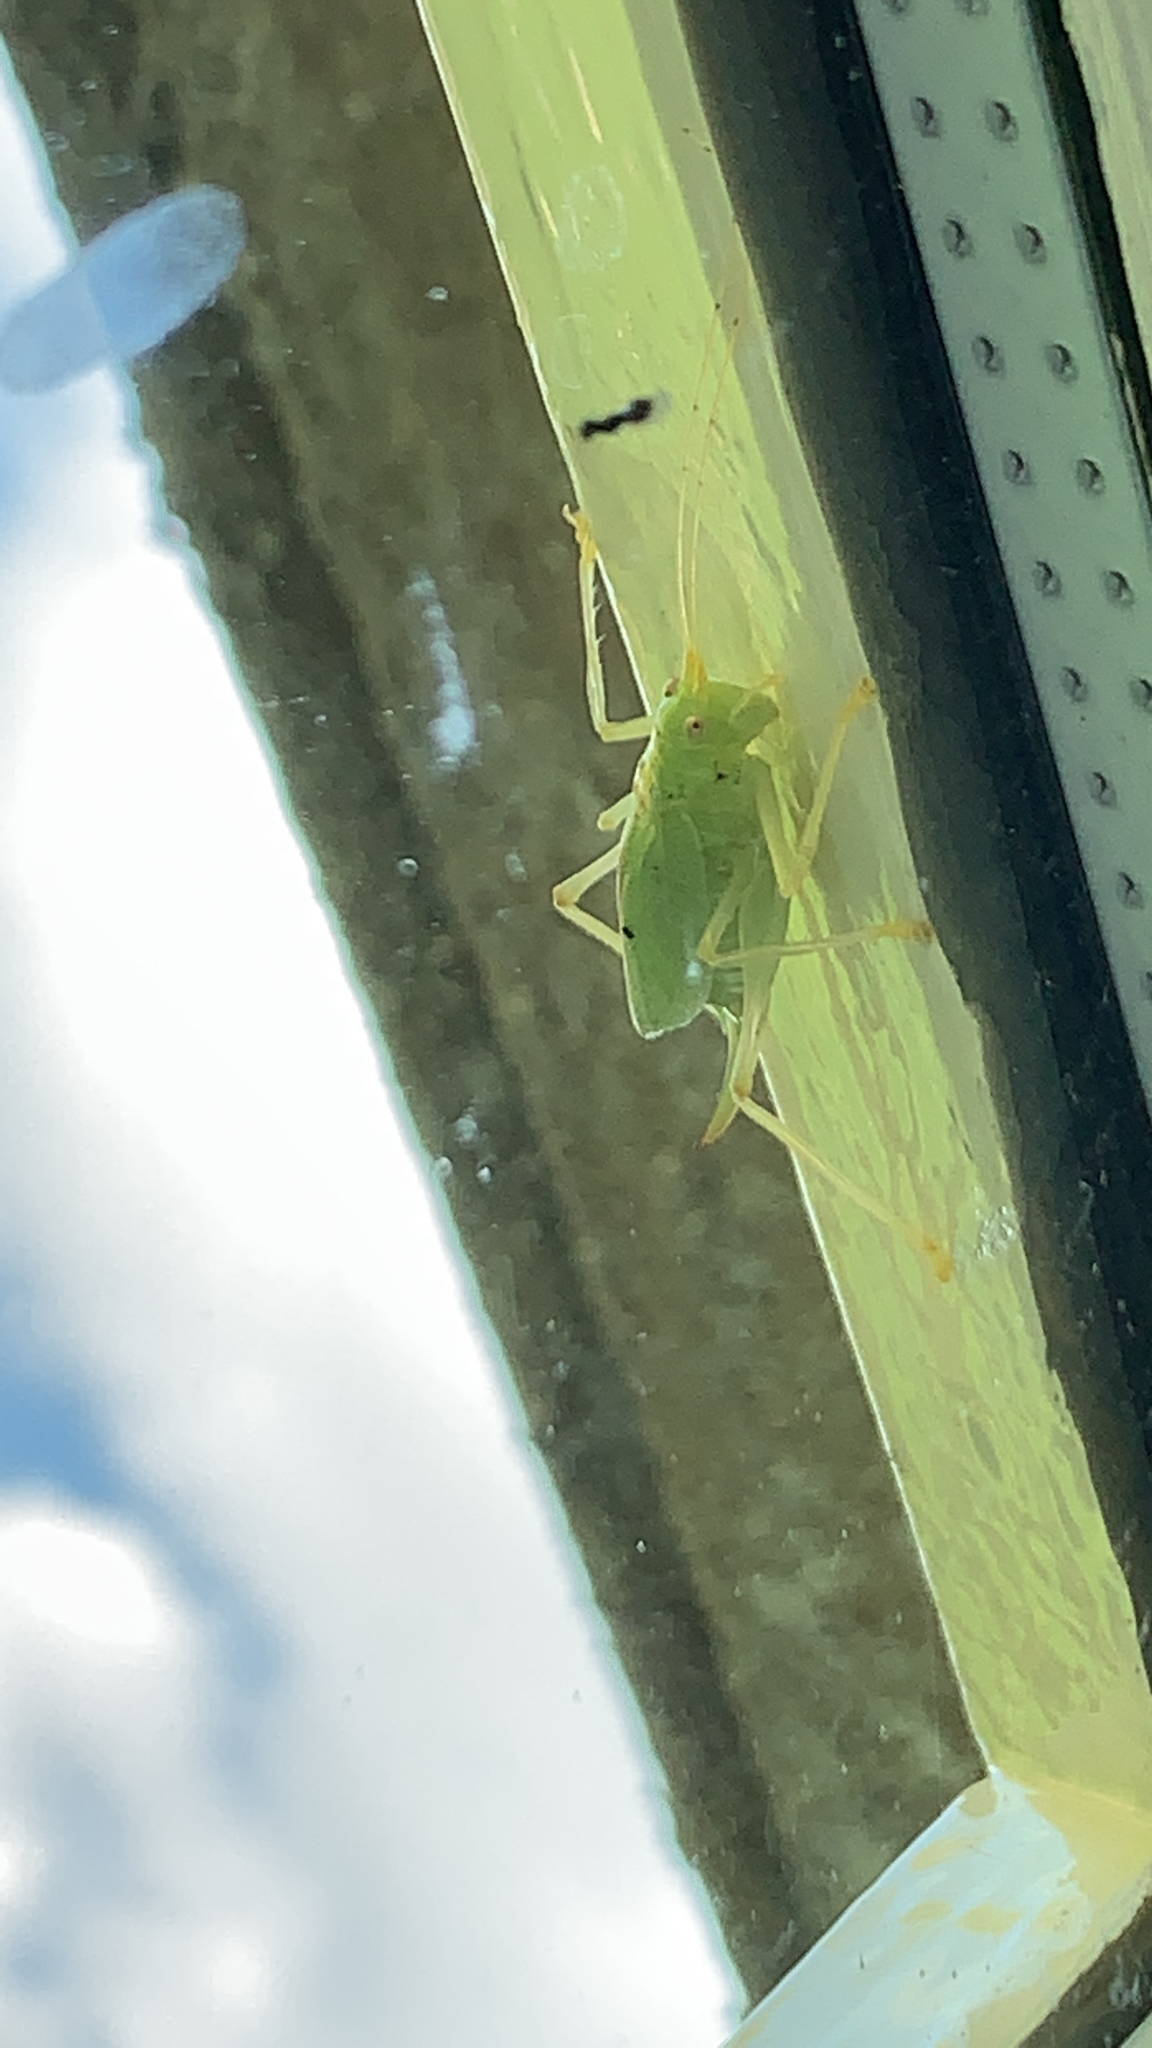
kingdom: Animalia
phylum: Arthropoda
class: Insecta
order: Orthoptera
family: Tettigoniidae
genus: Meconema
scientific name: Meconema thalassinum
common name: Oak bush-cricket
